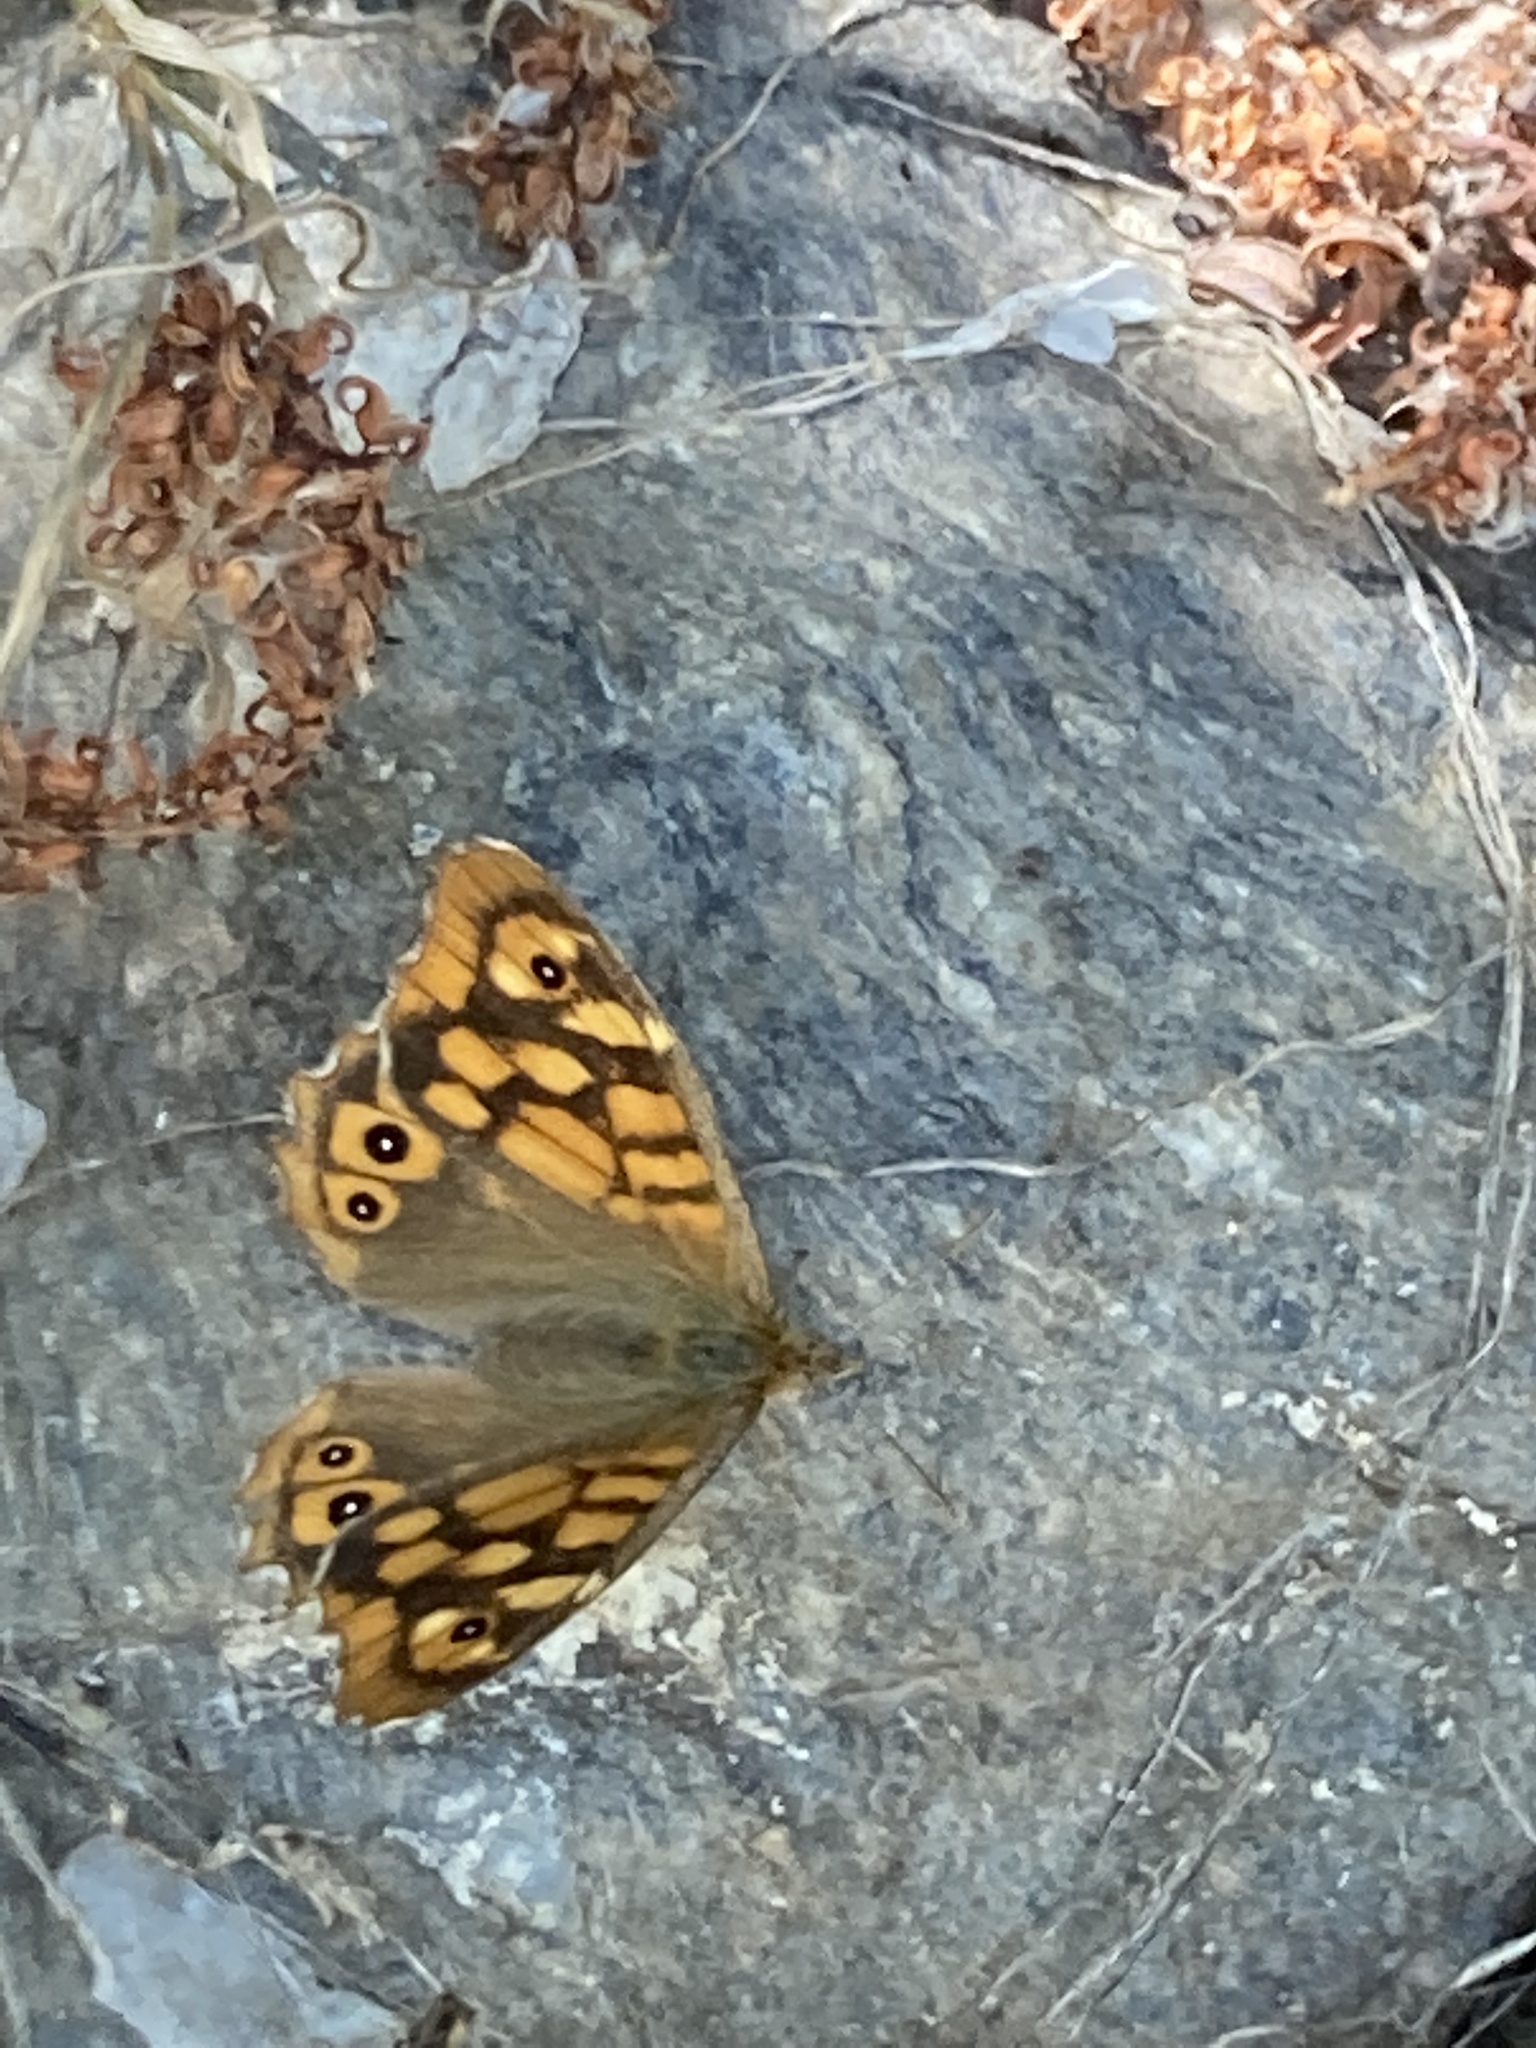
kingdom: Animalia
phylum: Arthropoda
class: Insecta
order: Lepidoptera
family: Nymphalidae
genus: Pararge
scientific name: Pararge aegeria
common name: Speckled wood
